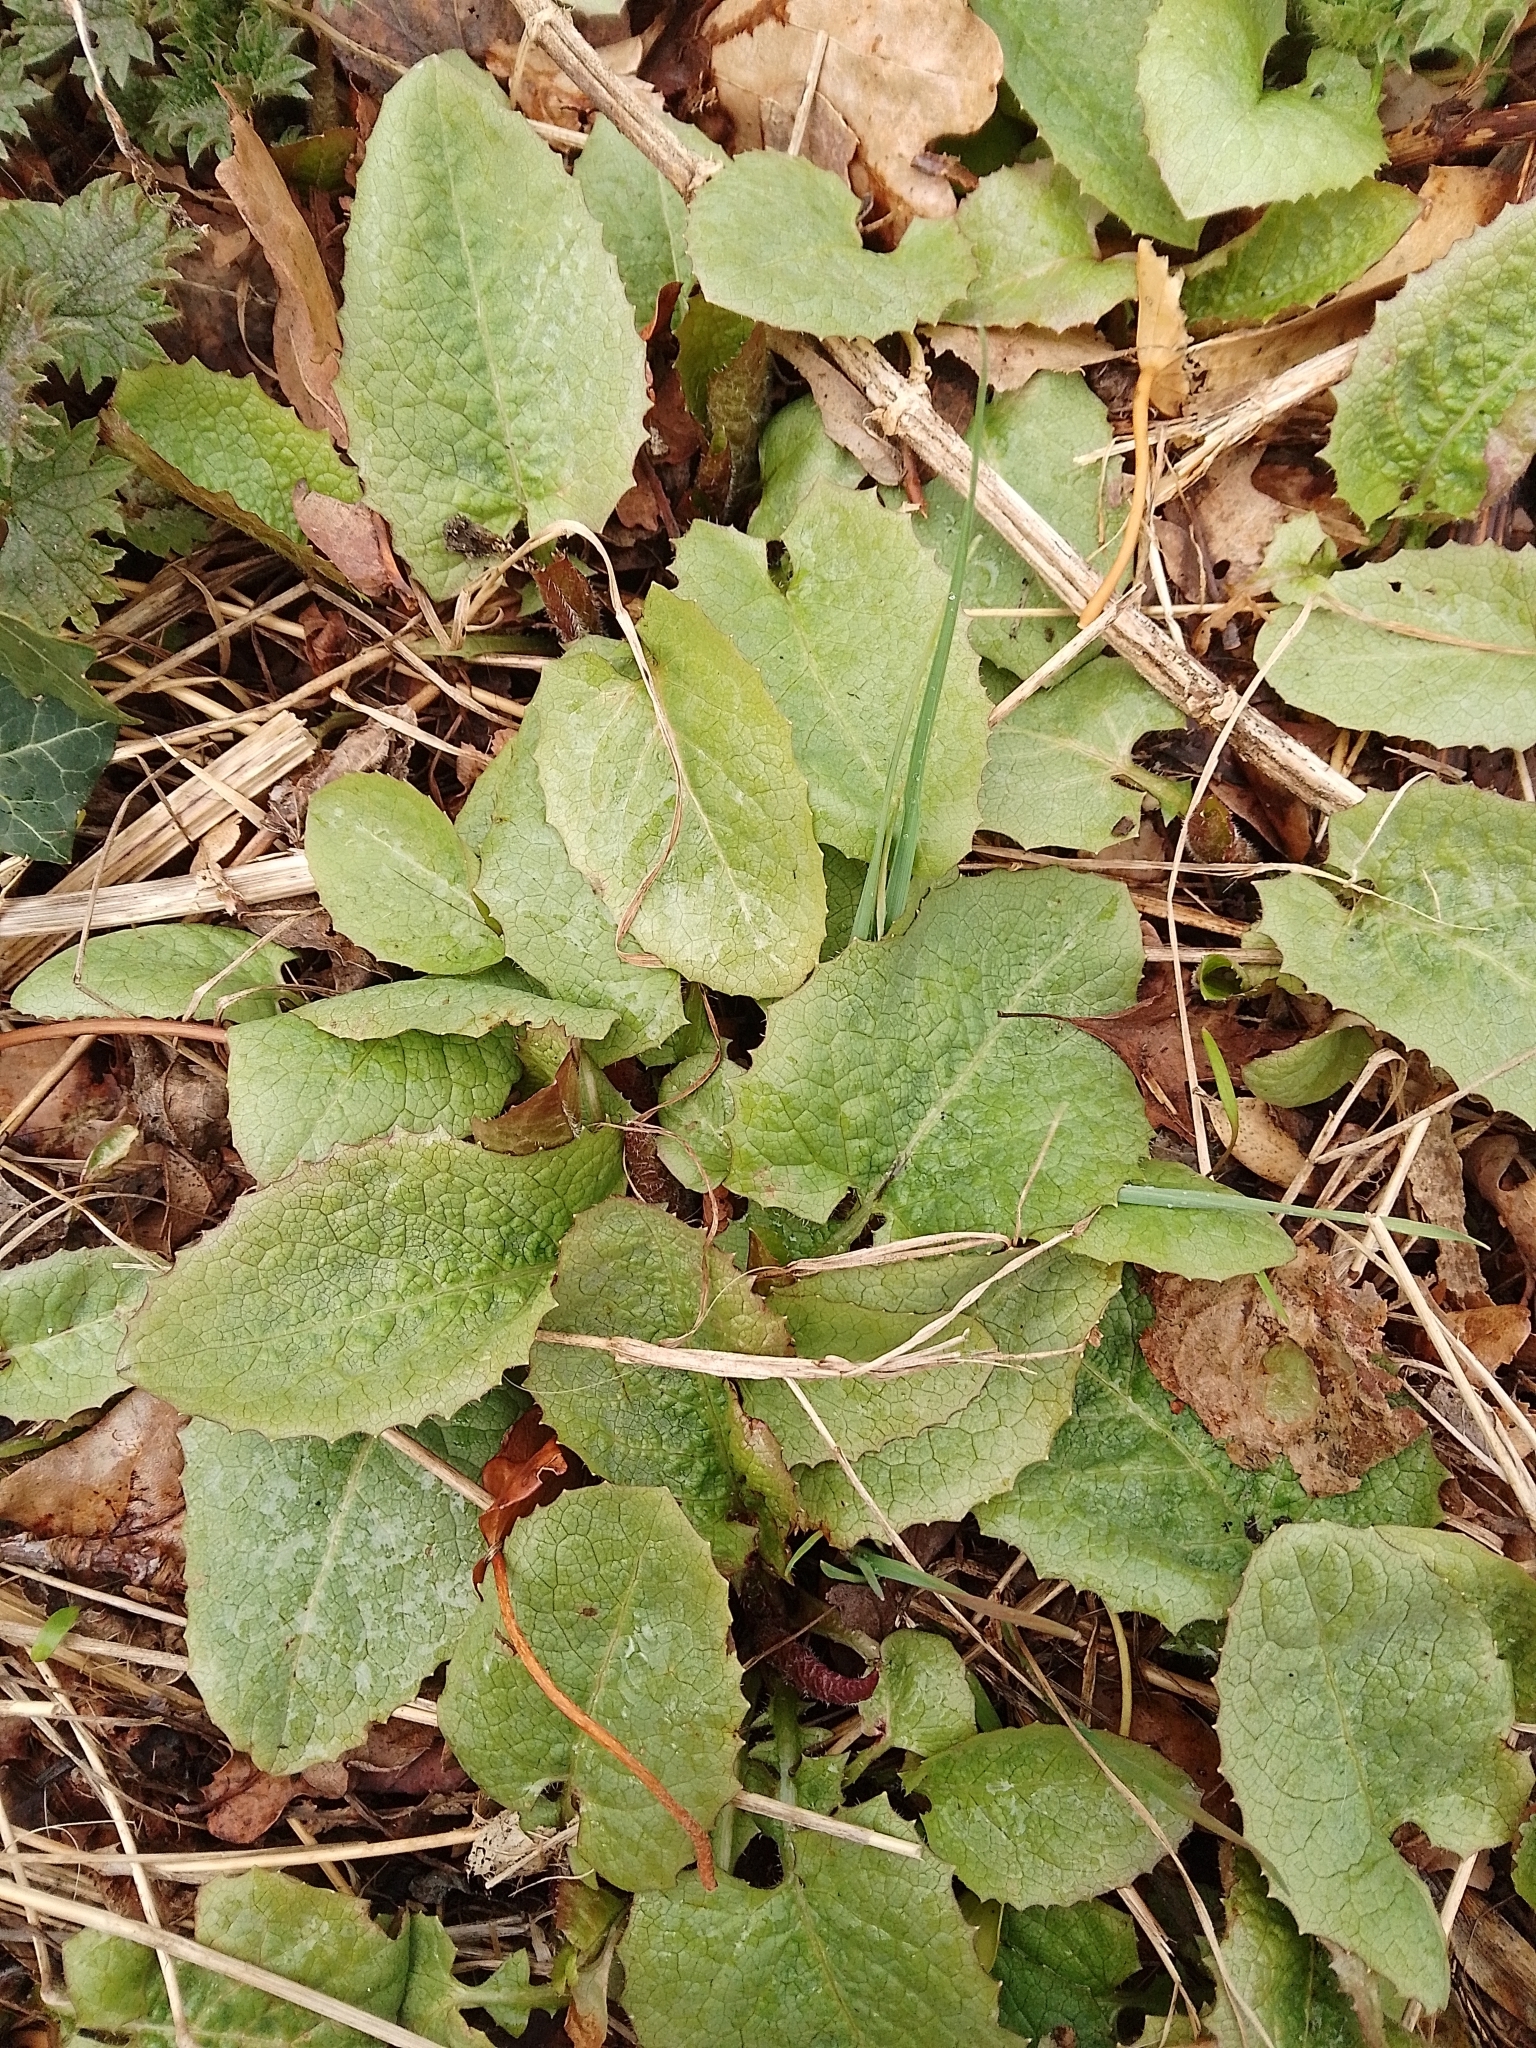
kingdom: Plantae
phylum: Tracheophyta
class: Magnoliopsida
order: Asterales
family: Asteraceae
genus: Lactuca
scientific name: Lactuca macrophylla
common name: Common blue-sow-thistle
